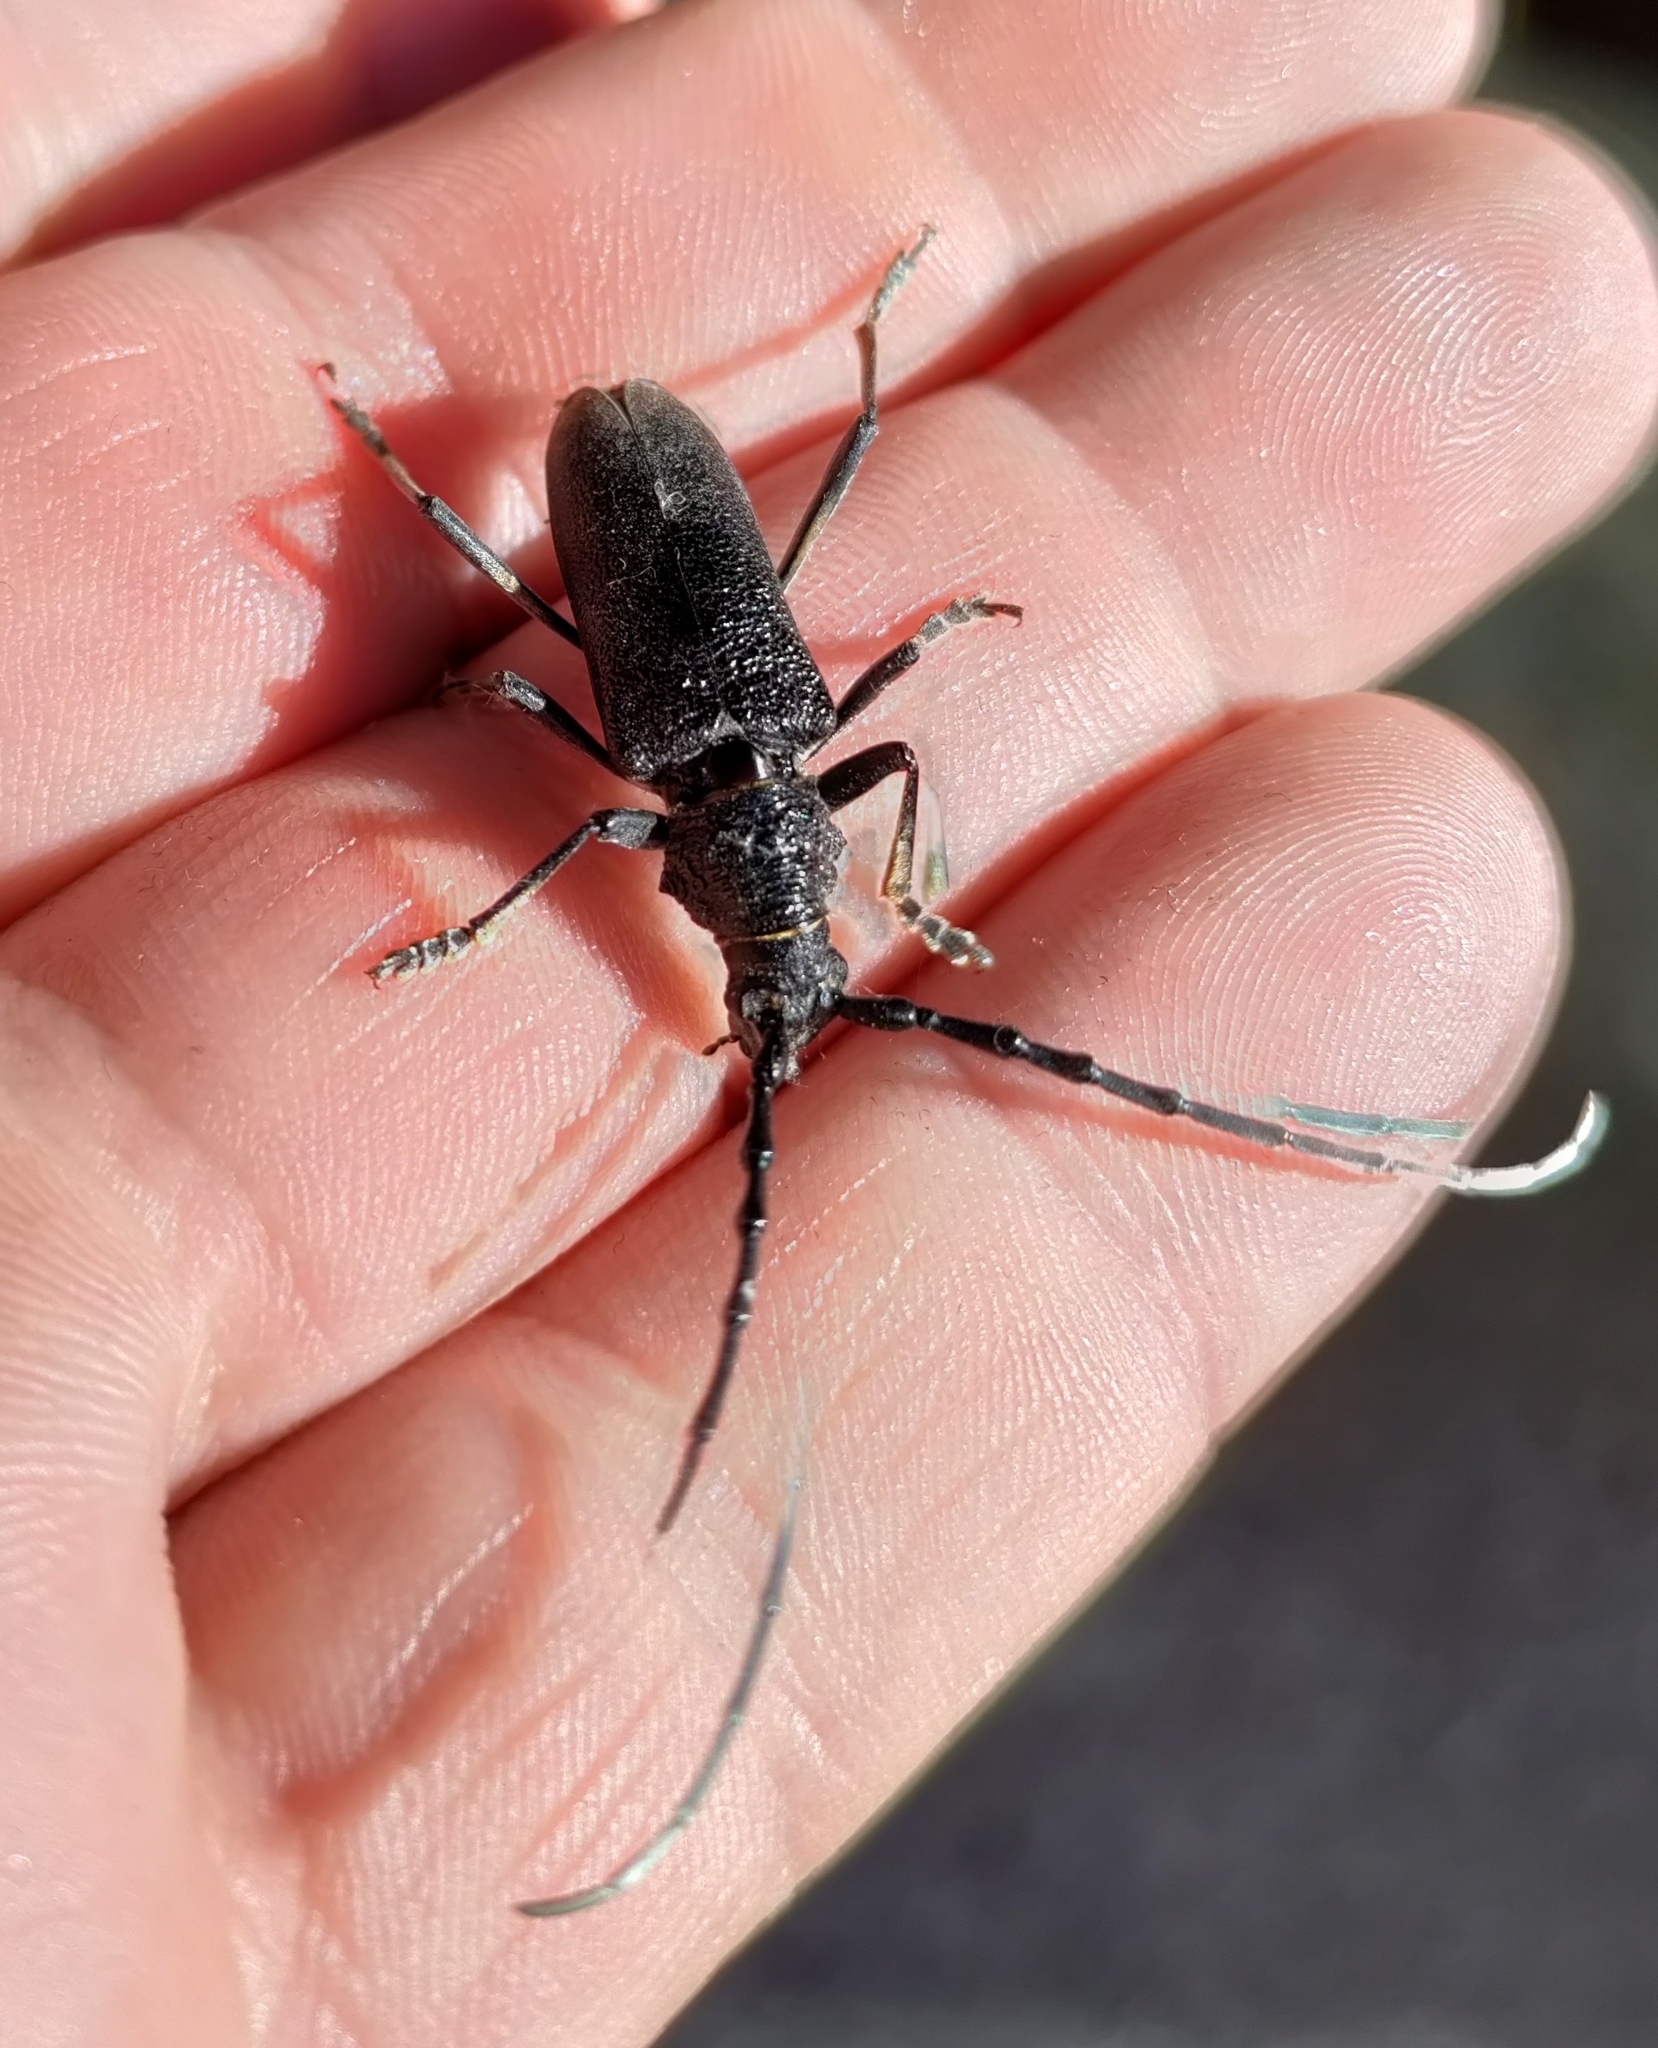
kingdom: Animalia
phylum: Arthropoda
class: Insecta
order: Coleoptera
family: Cerambycidae
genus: Cerambyx
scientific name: Cerambyx scopolii
